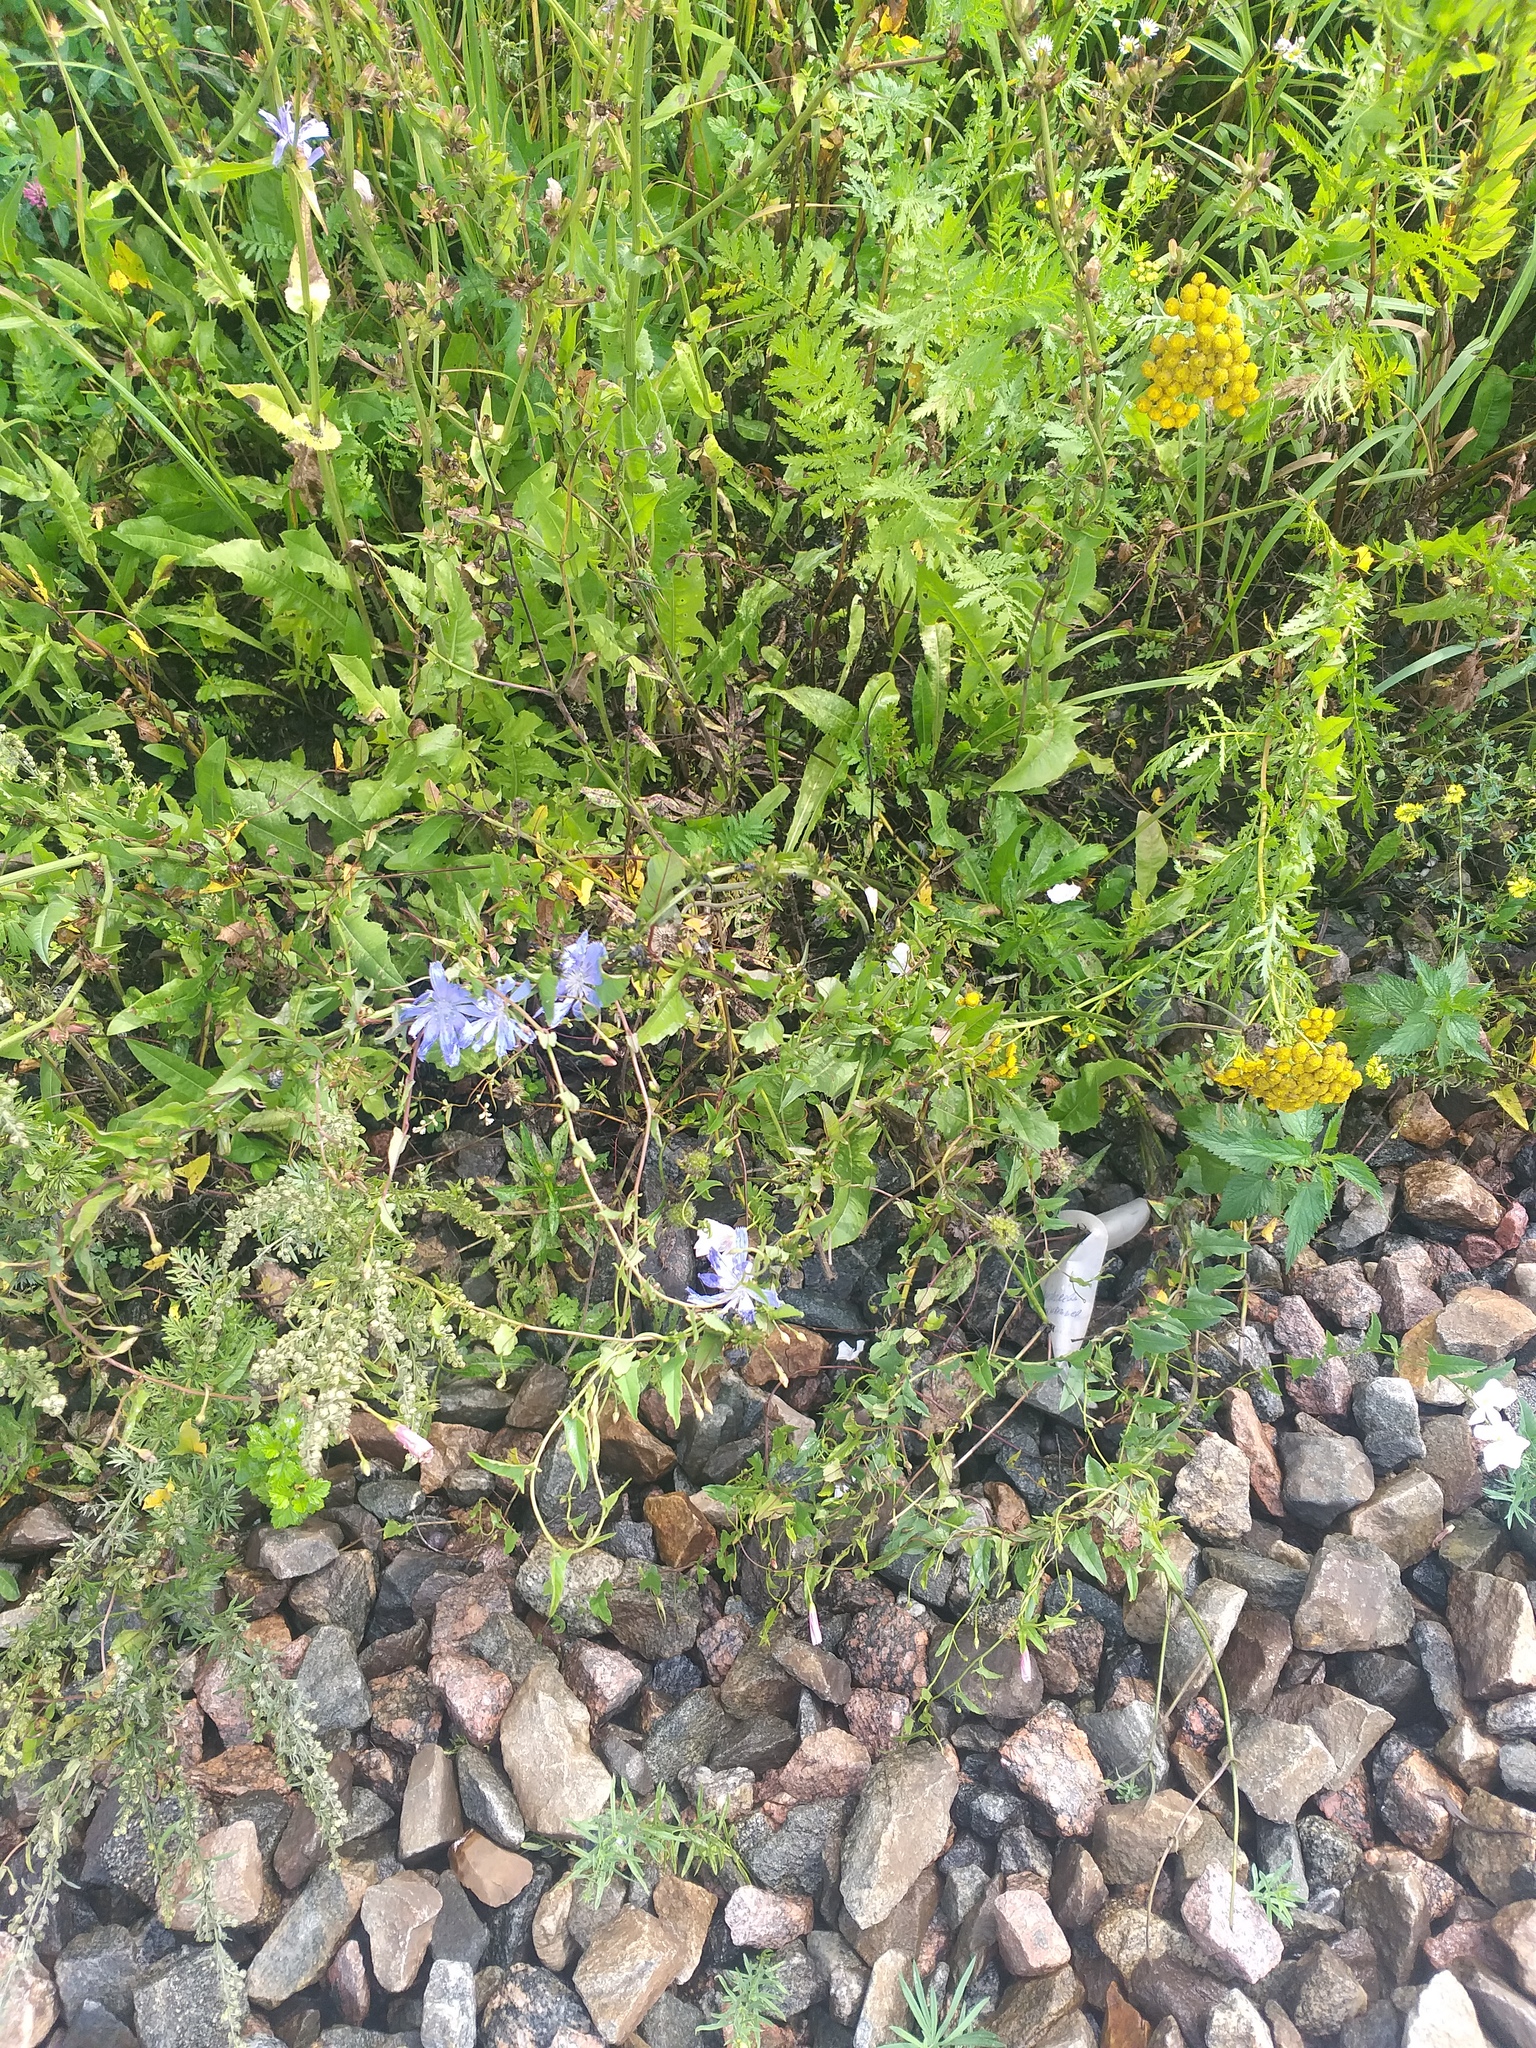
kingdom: Plantae
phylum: Tracheophyta
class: Magnoliopsida
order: Asterales
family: Asteraceae
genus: Cichorium
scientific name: Cichorium intybus
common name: Chicory
